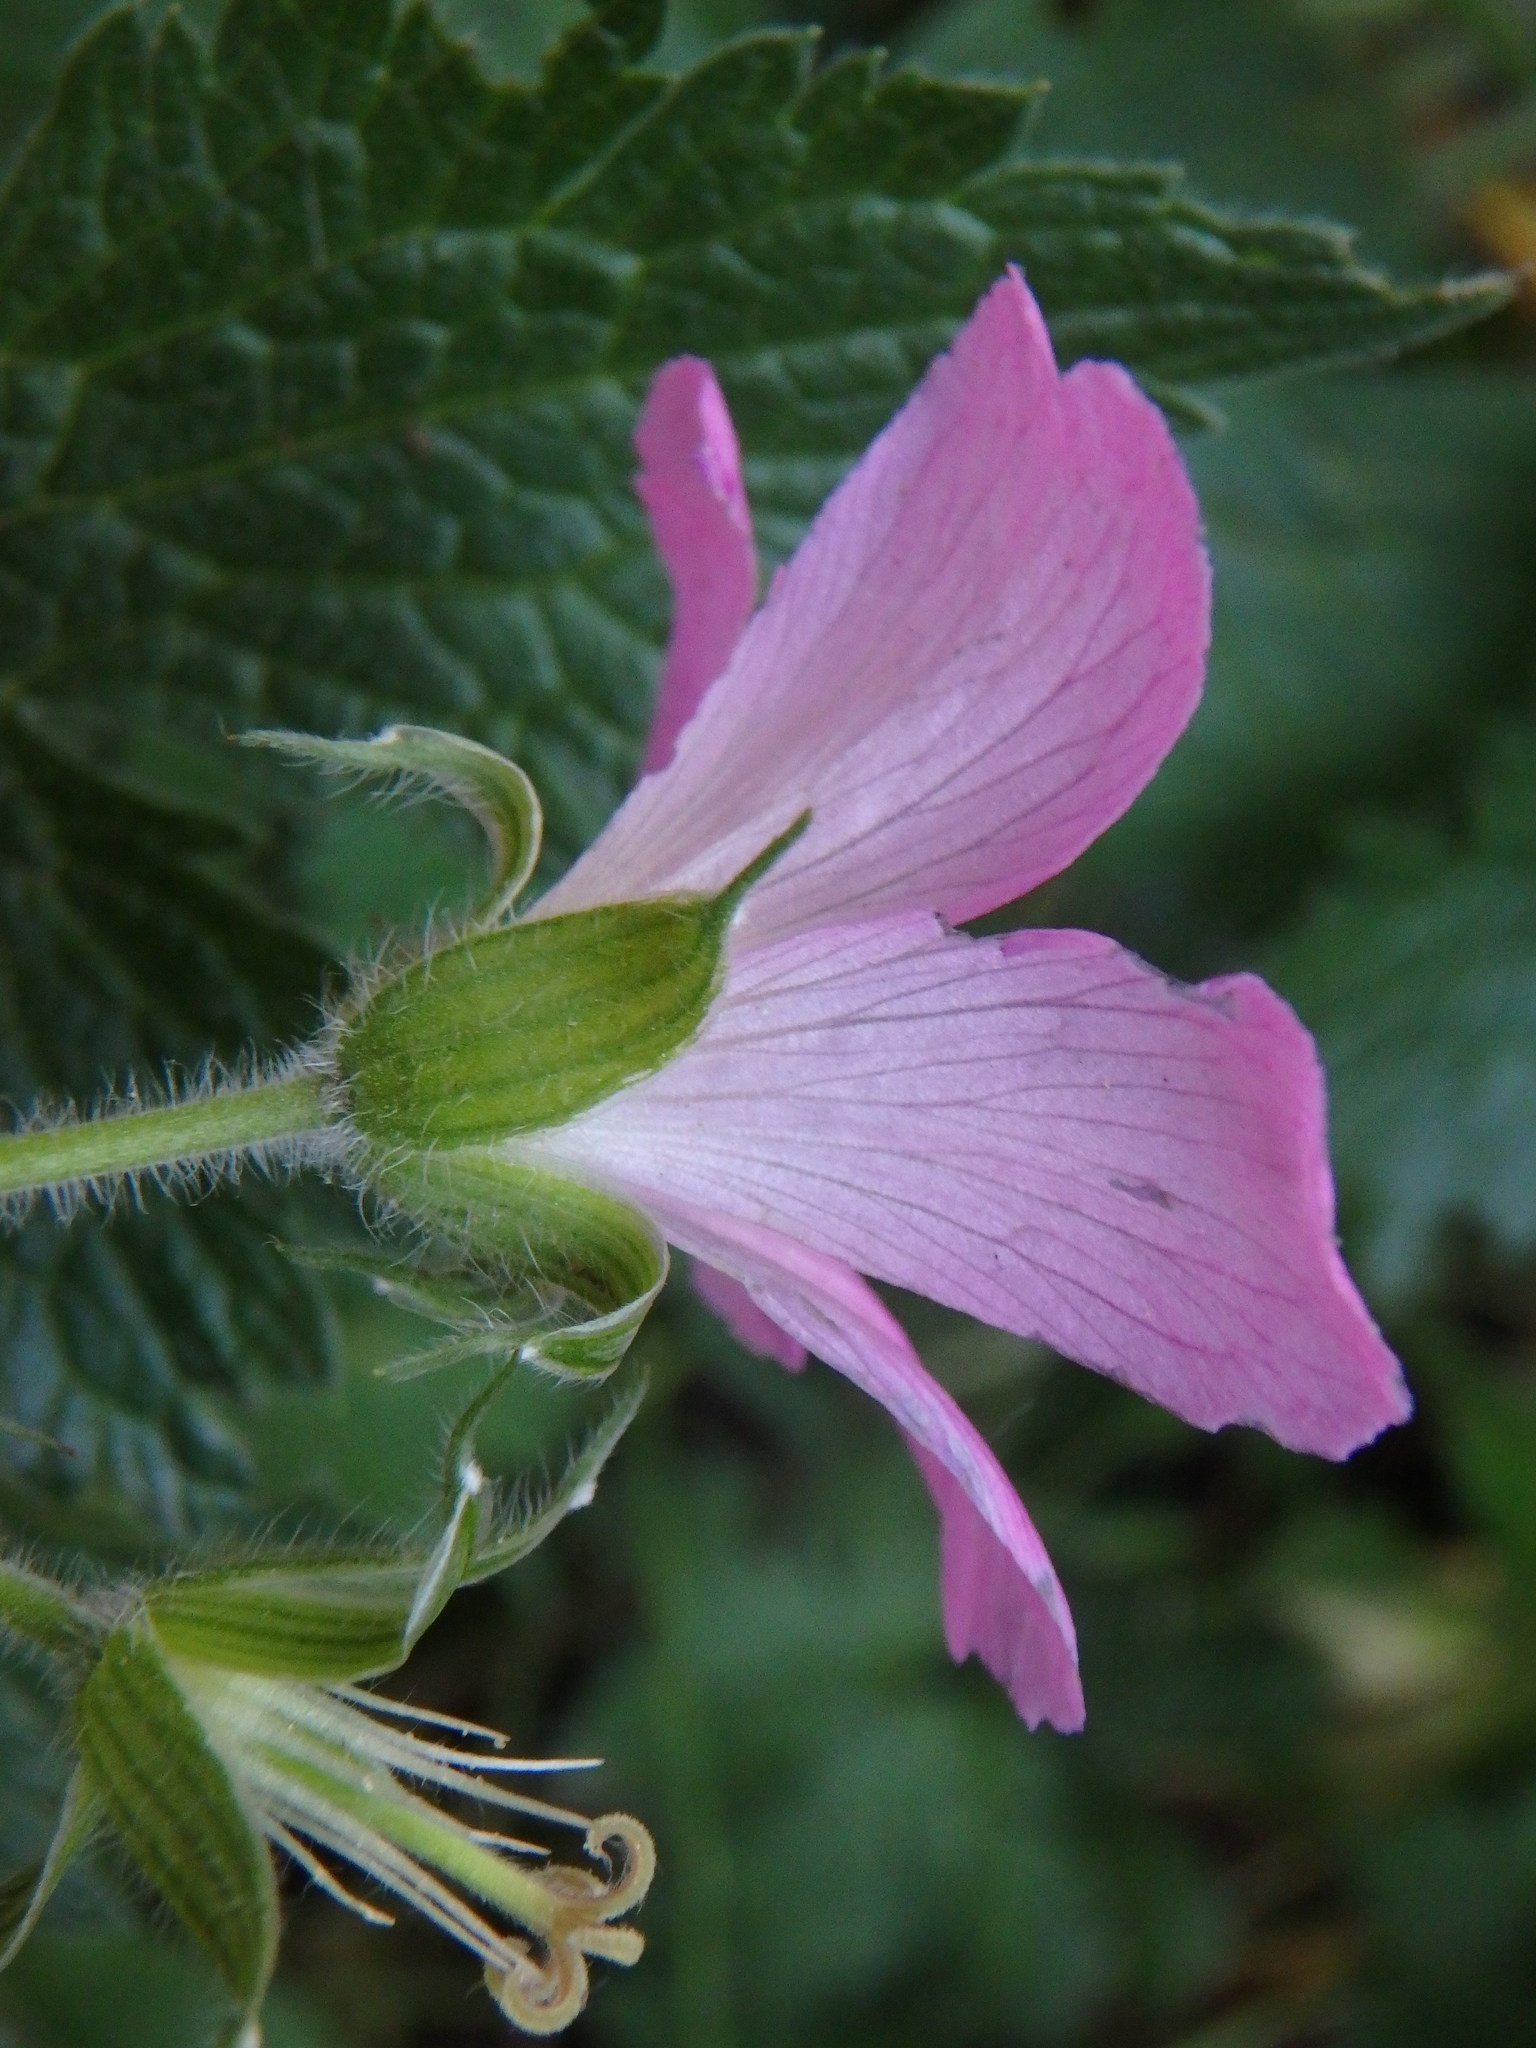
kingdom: Plantae
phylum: Tracheophyta
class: Magnoliopsida
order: Geraniales
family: Geraniaceae
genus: Geranium
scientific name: Geranium oxonianum
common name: Druce's crane's-bill
